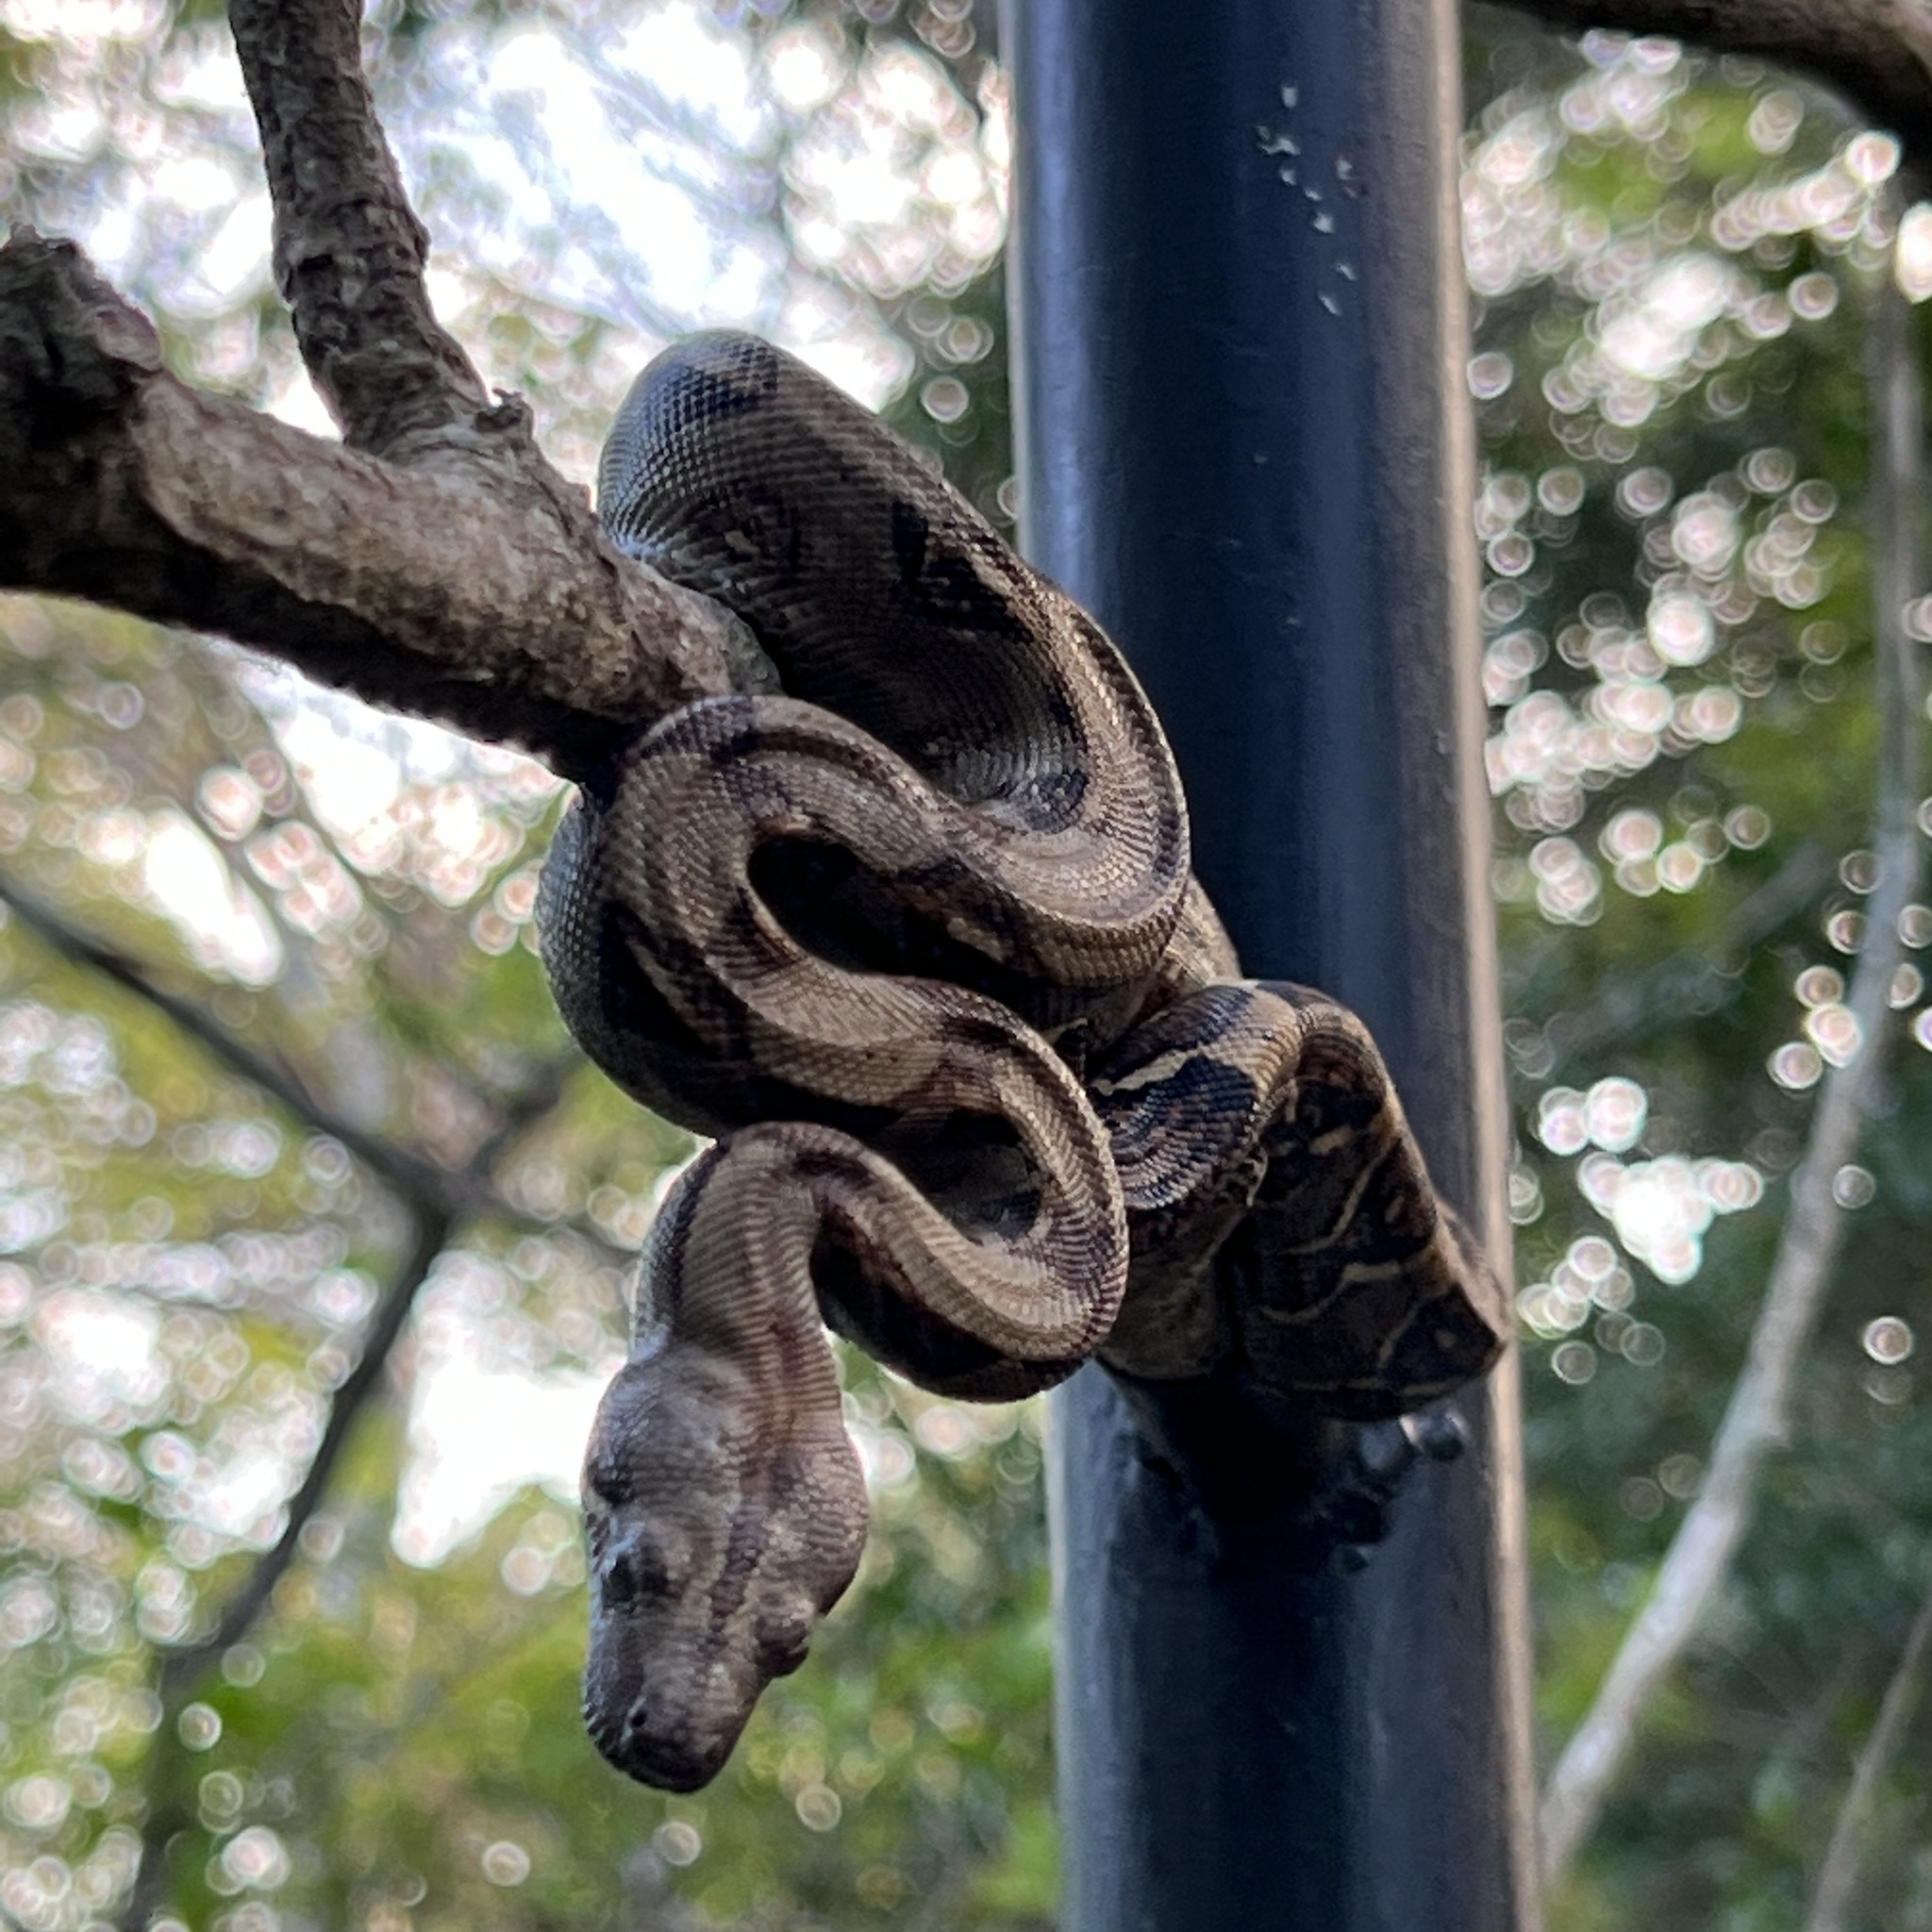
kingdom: Animalia
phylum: Chordata
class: Squamata
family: Boidae
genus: Boa
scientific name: Boa imperator
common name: Central american boa
